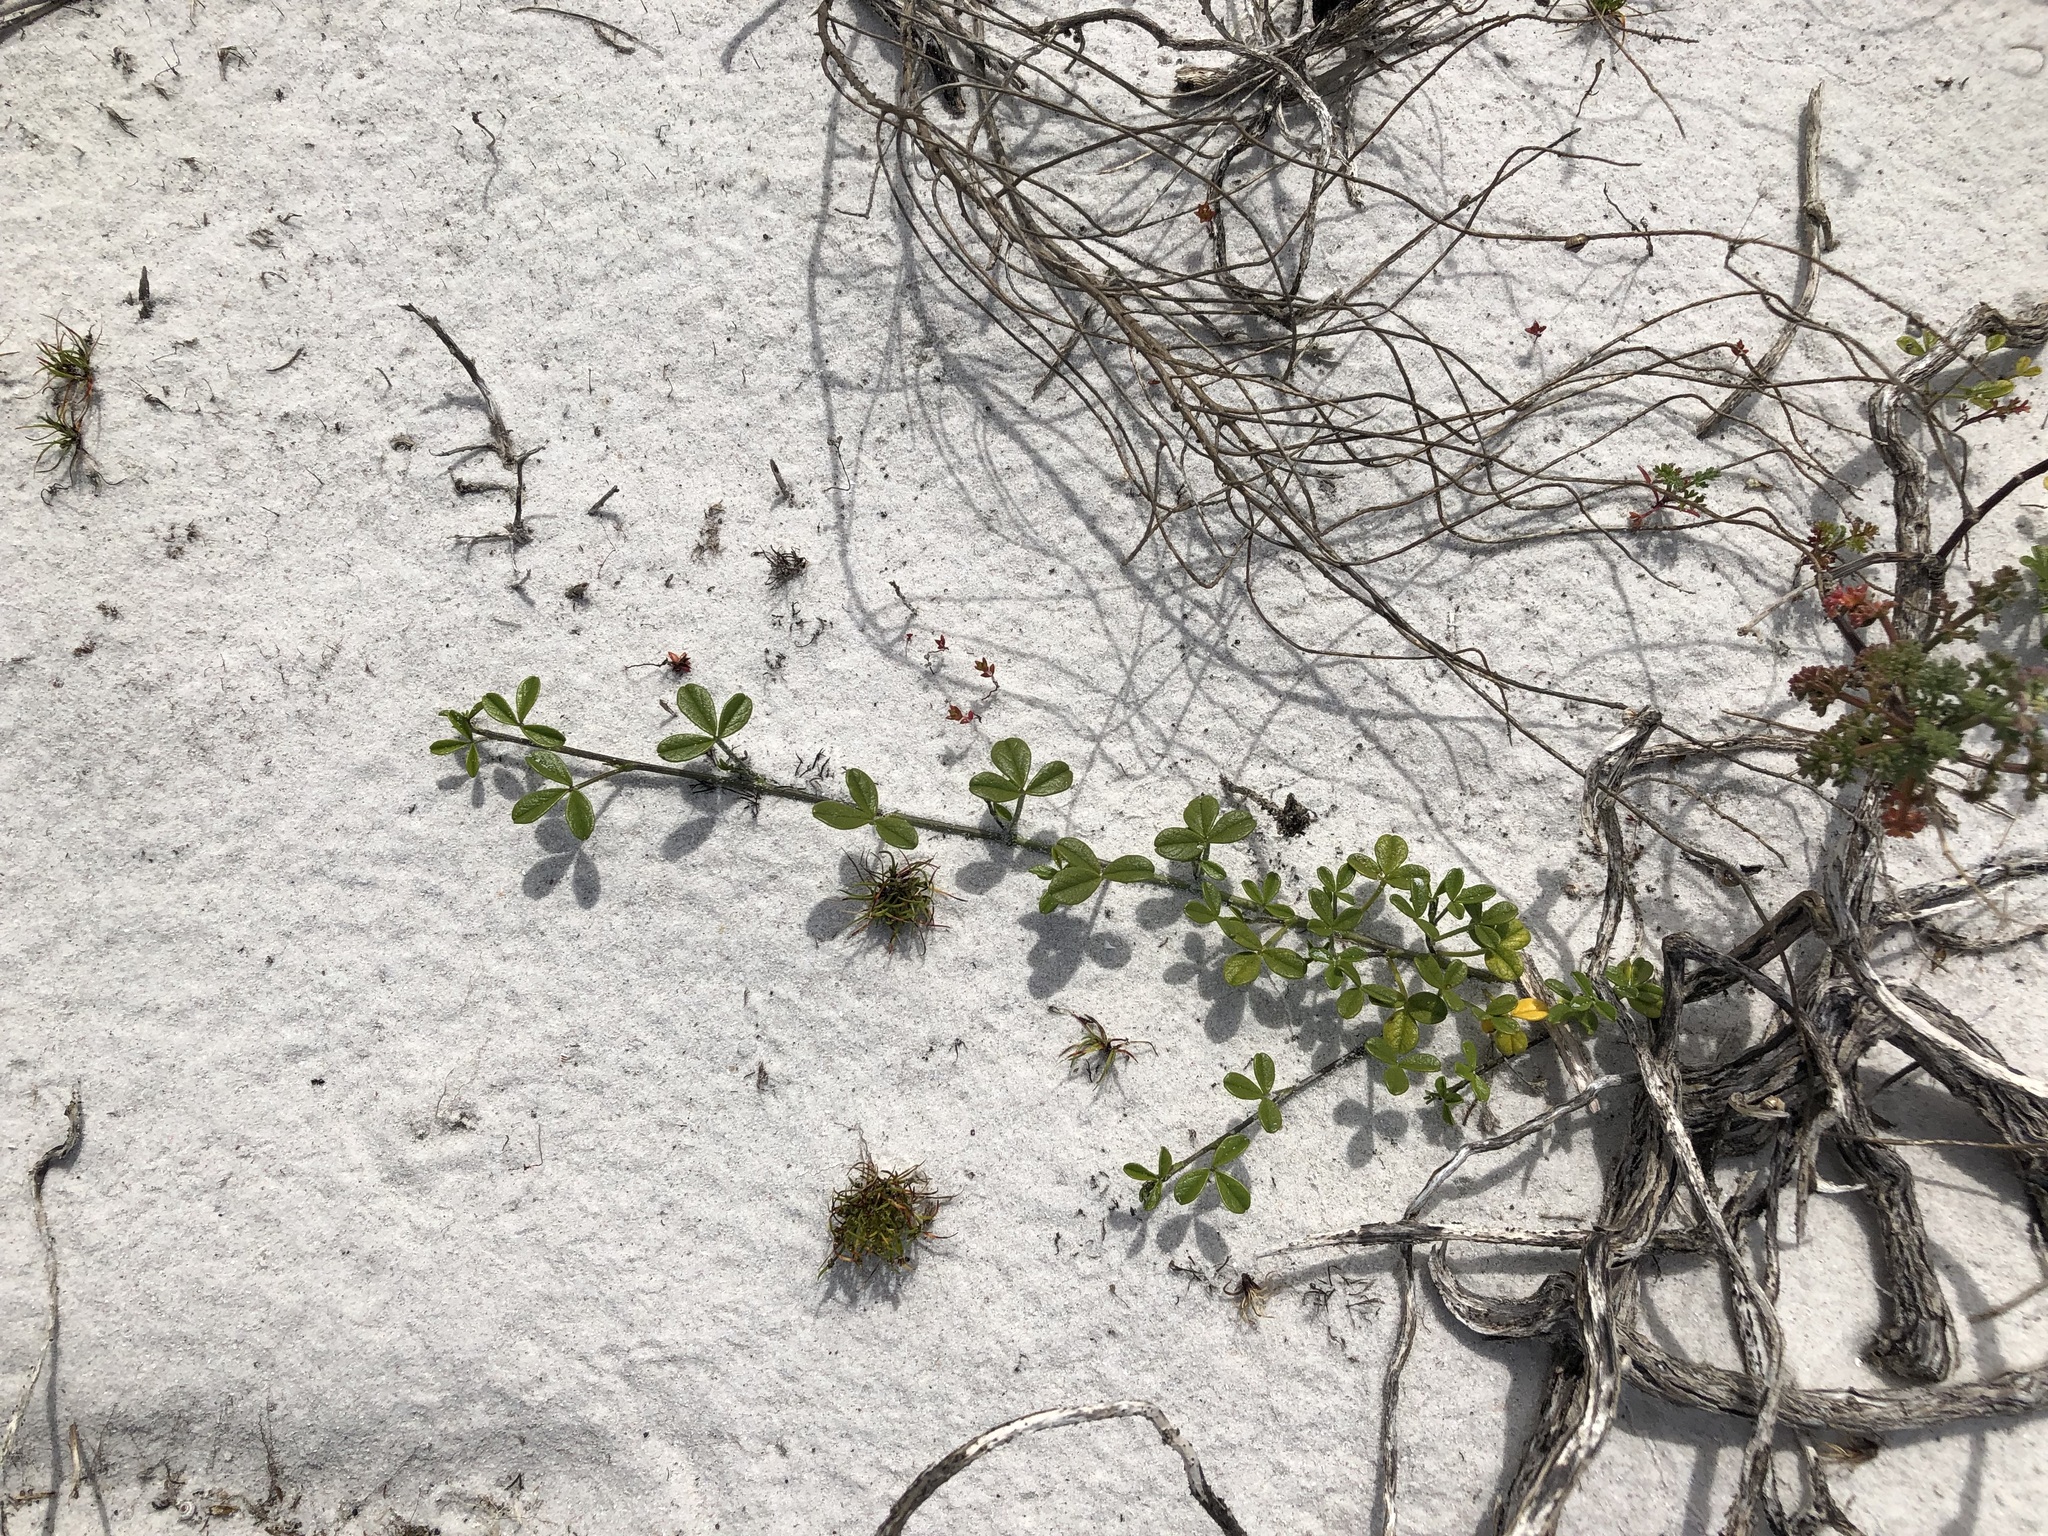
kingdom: Plantae
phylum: Tracheophyta
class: Magnoliopsida
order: Fabales
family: Fabaceae
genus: Psoralea
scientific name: Psoralea repens
